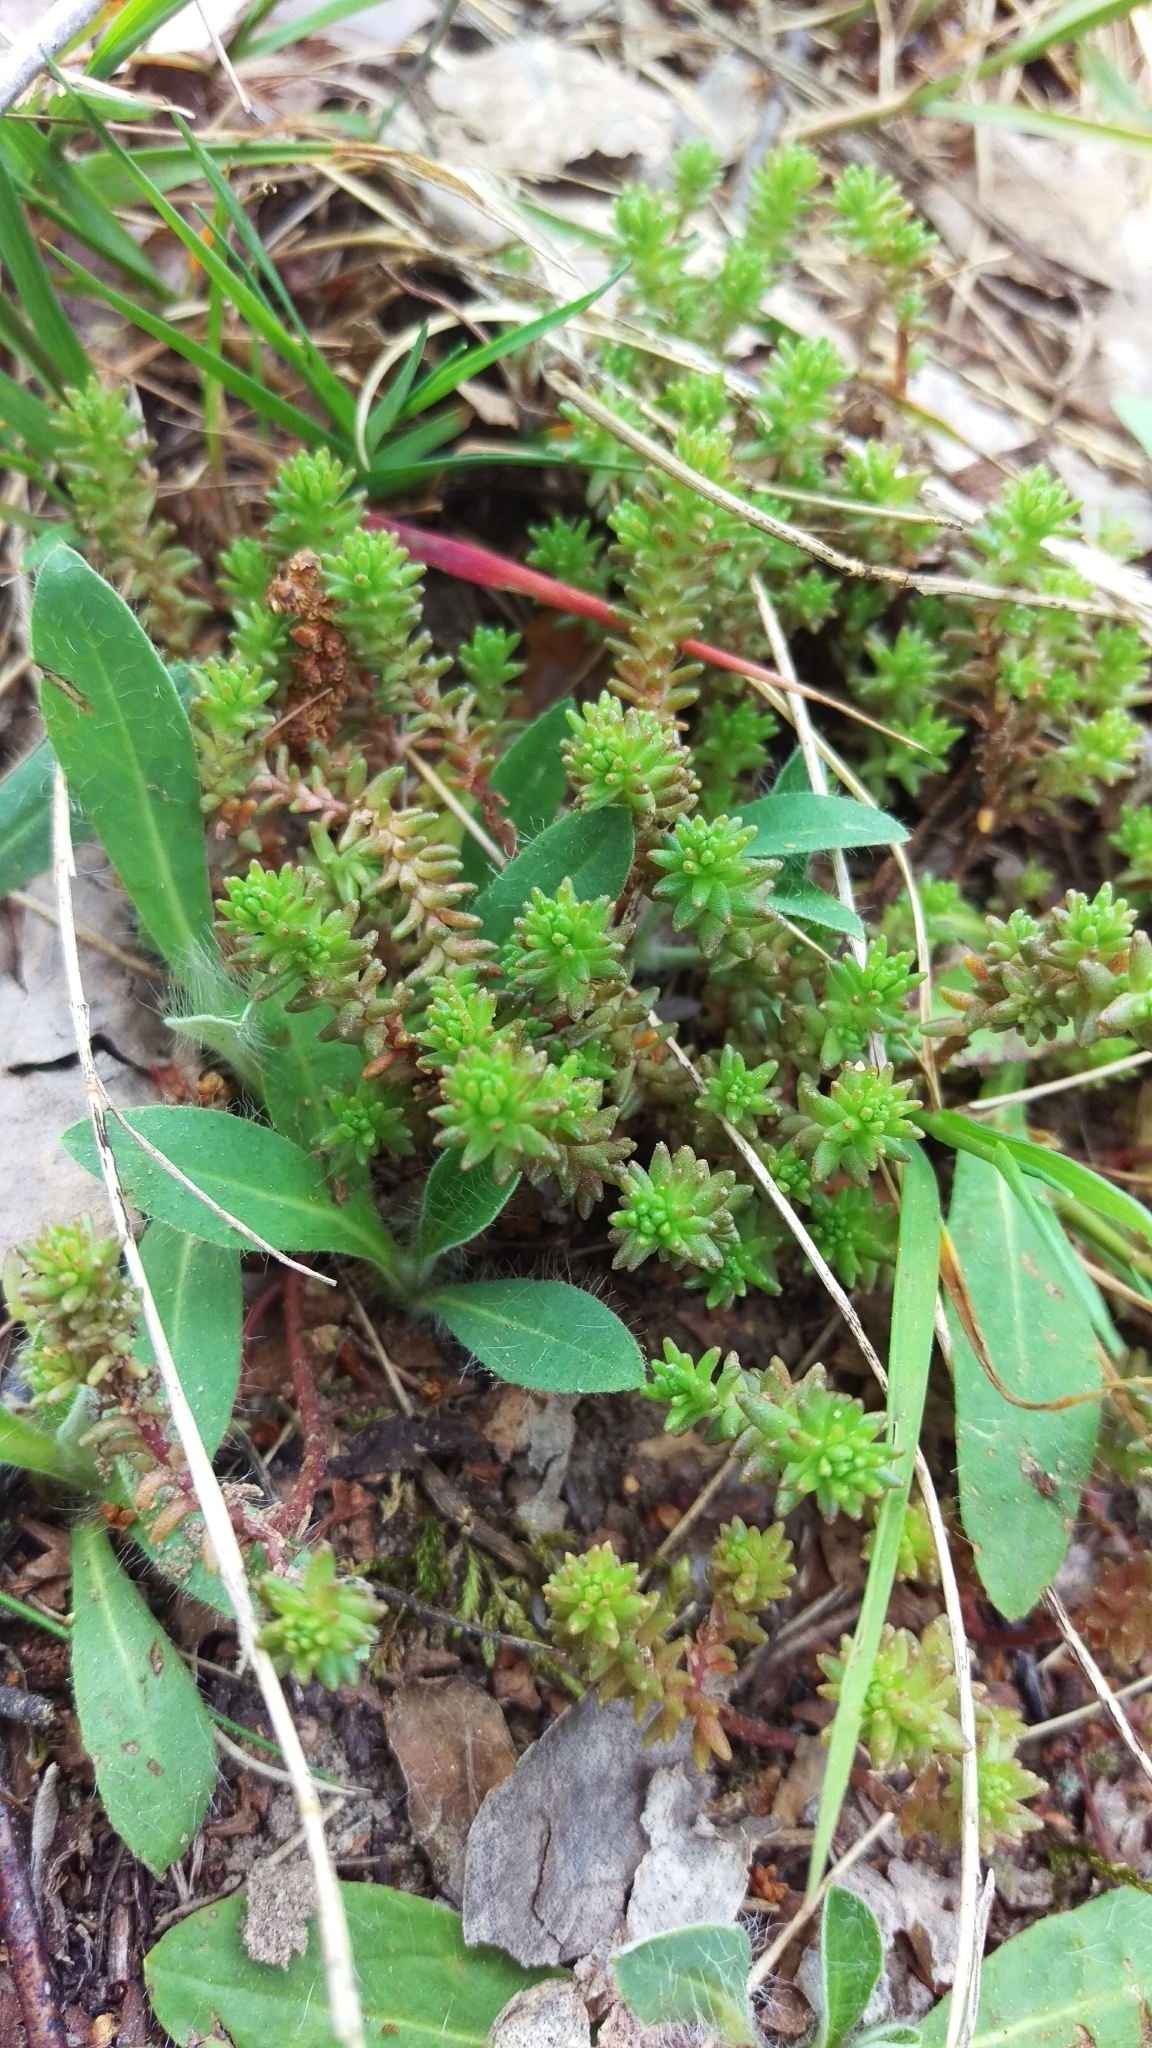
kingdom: Plantae
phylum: Tracheophyta
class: Magnoliopsida
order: Saxifragales
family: Crassulaceae
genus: Sedum
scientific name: Sedum sexangulare
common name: Tasteless stonecrop
